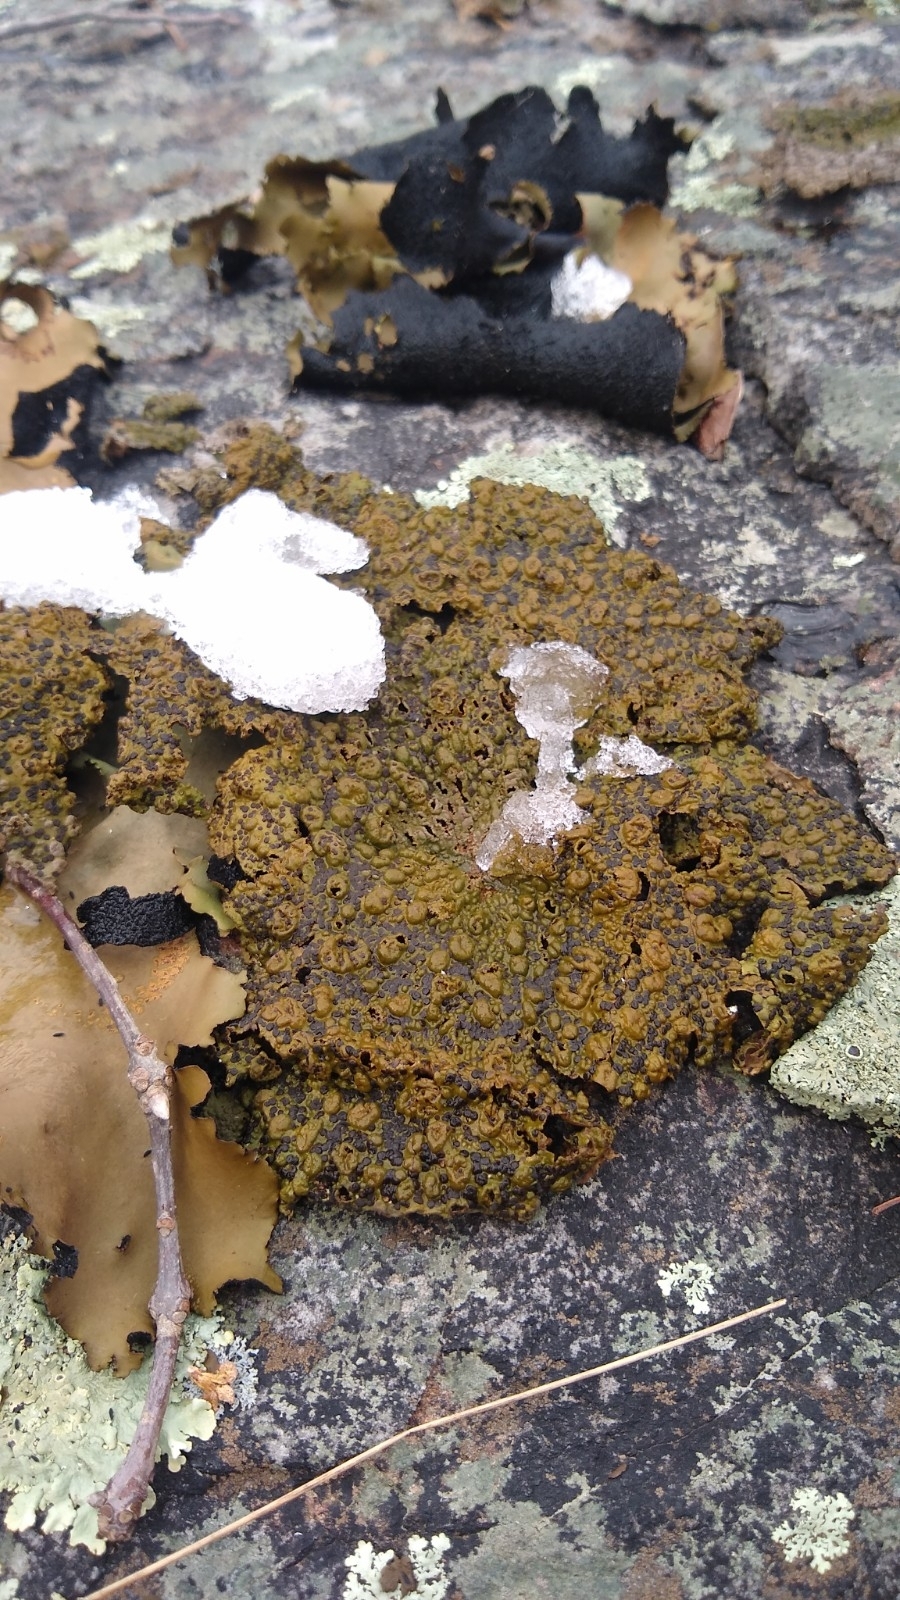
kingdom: Fungi
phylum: Ascomycota
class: Lecanoromycetes
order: Umbilicariales
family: Umbilicariaceae
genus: Lasallia
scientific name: Lasallia papulosa
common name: Common toadskin lichen
